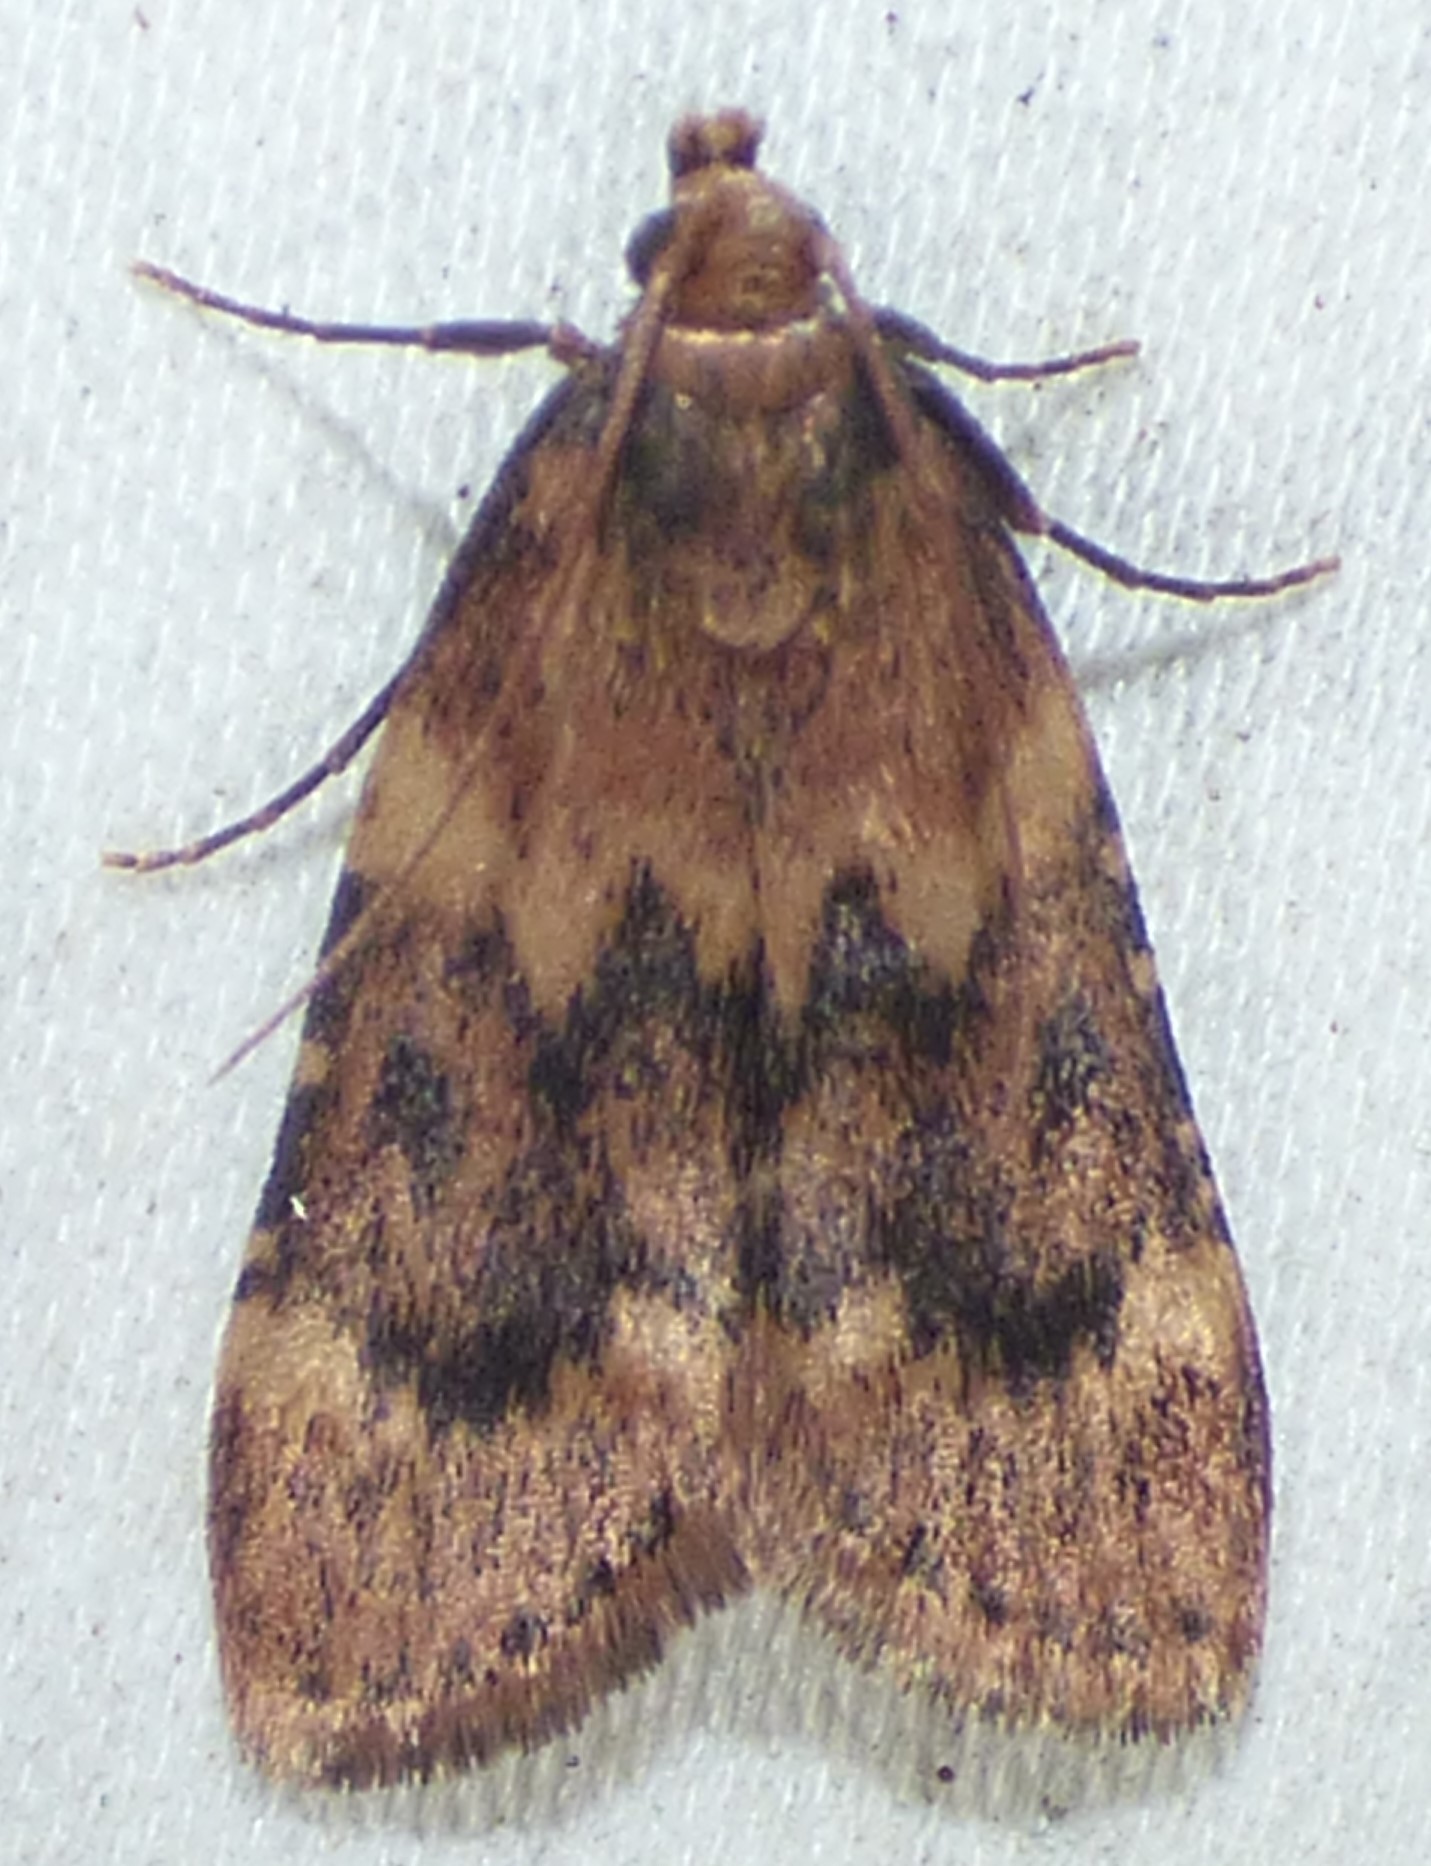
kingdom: Animalia
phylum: Arthropoda
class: Insecta
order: Lepidoptera
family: Pyralidae
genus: Aglossa
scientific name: Aglossa disciferalis
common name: Pink-masked pyralid moth
